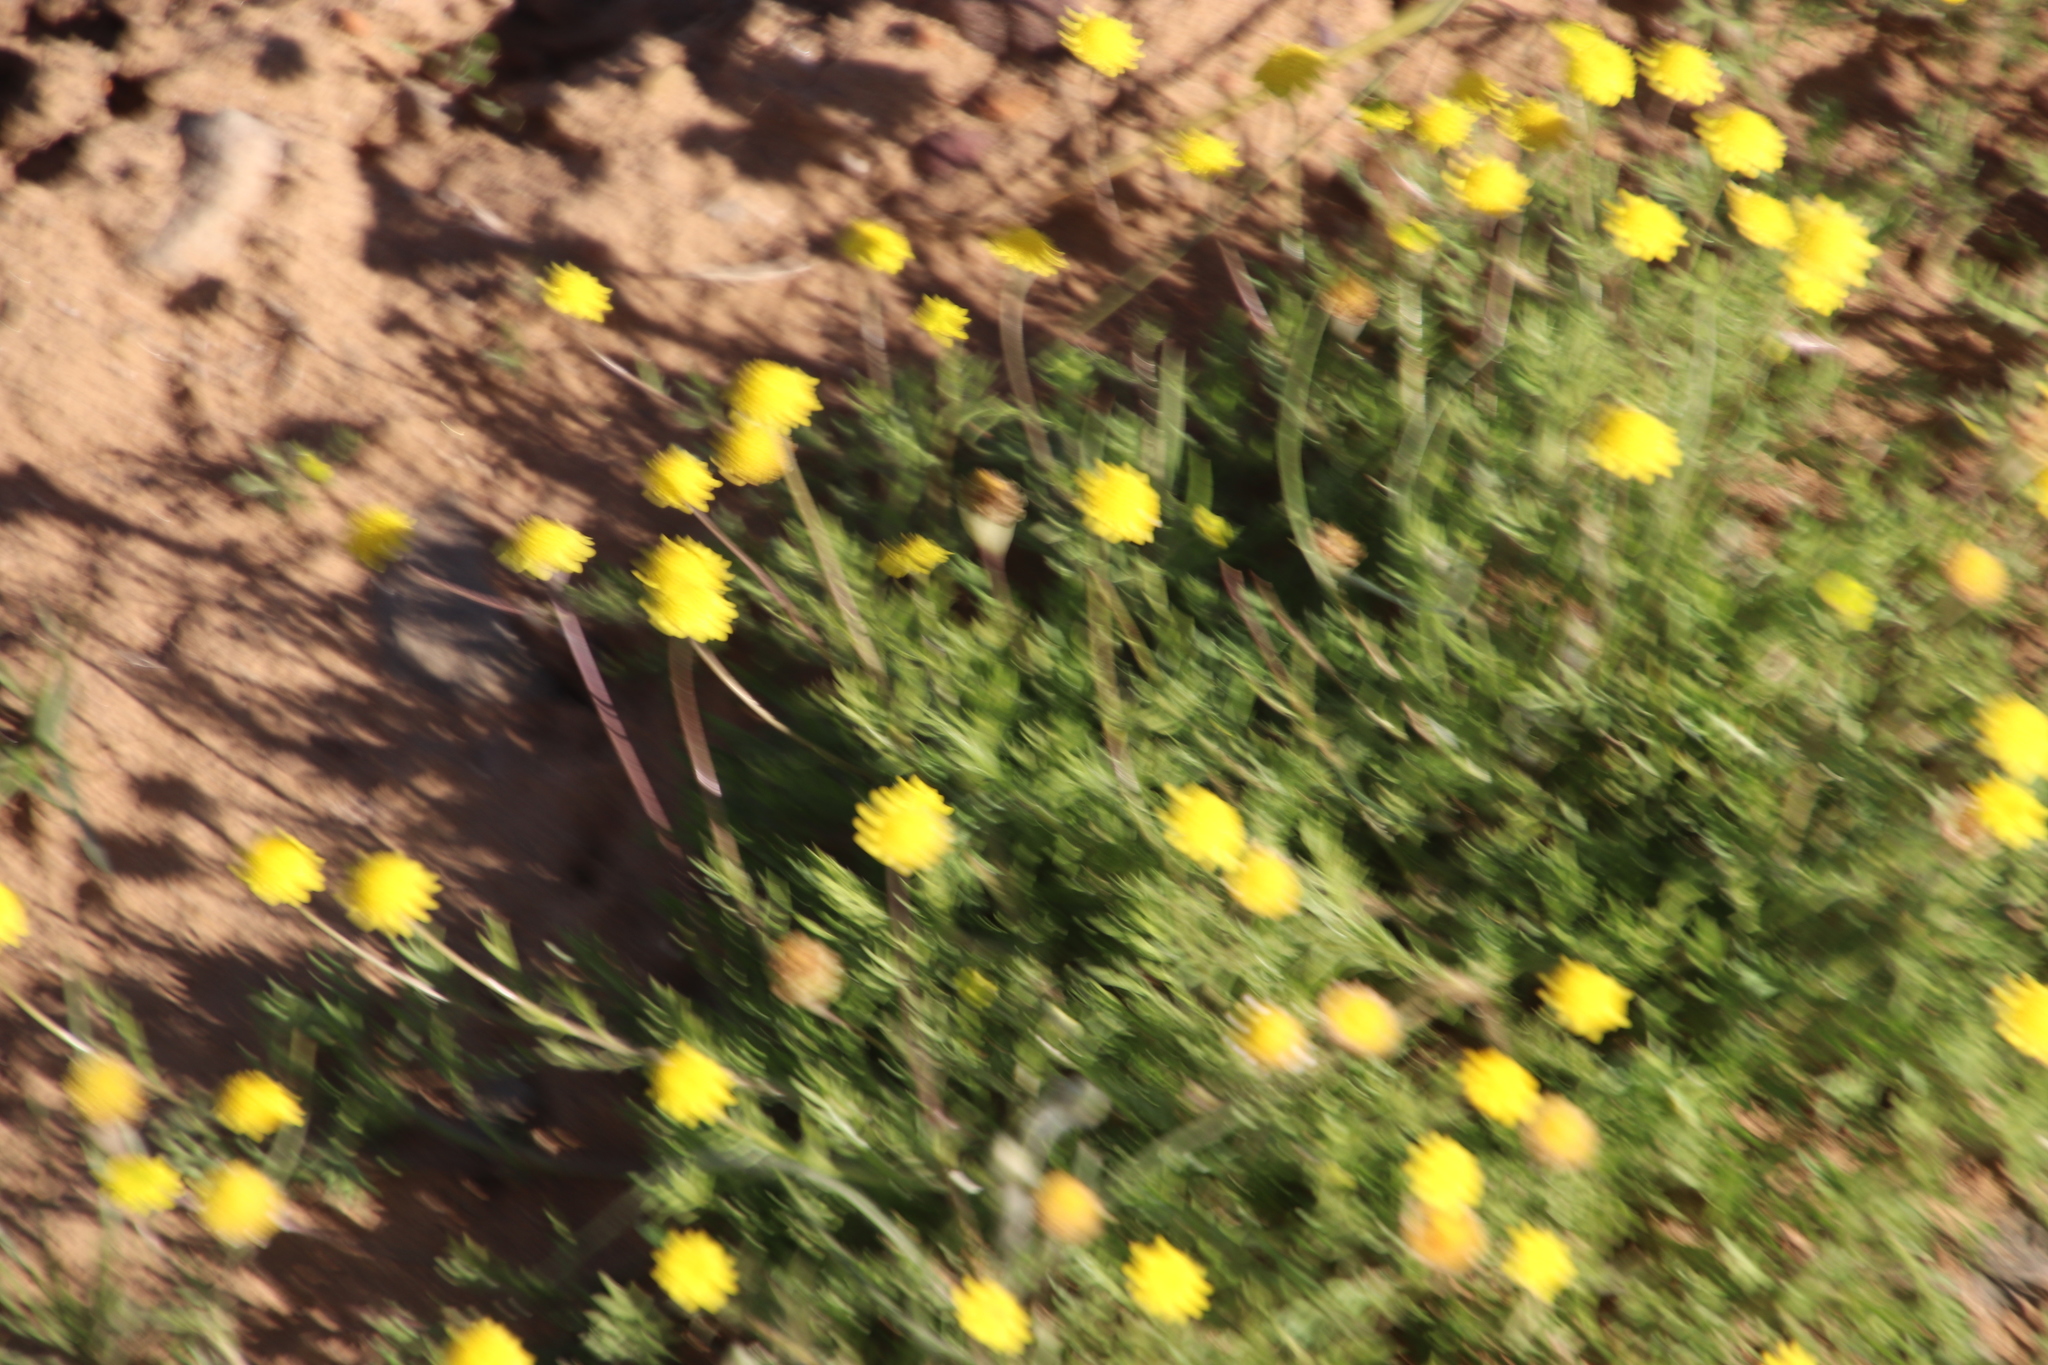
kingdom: Plantae
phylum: Tracheophyta
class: Magnoliopsida
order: Asterales
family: Asteraceae
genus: Cotula
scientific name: Cotula pruinosa
